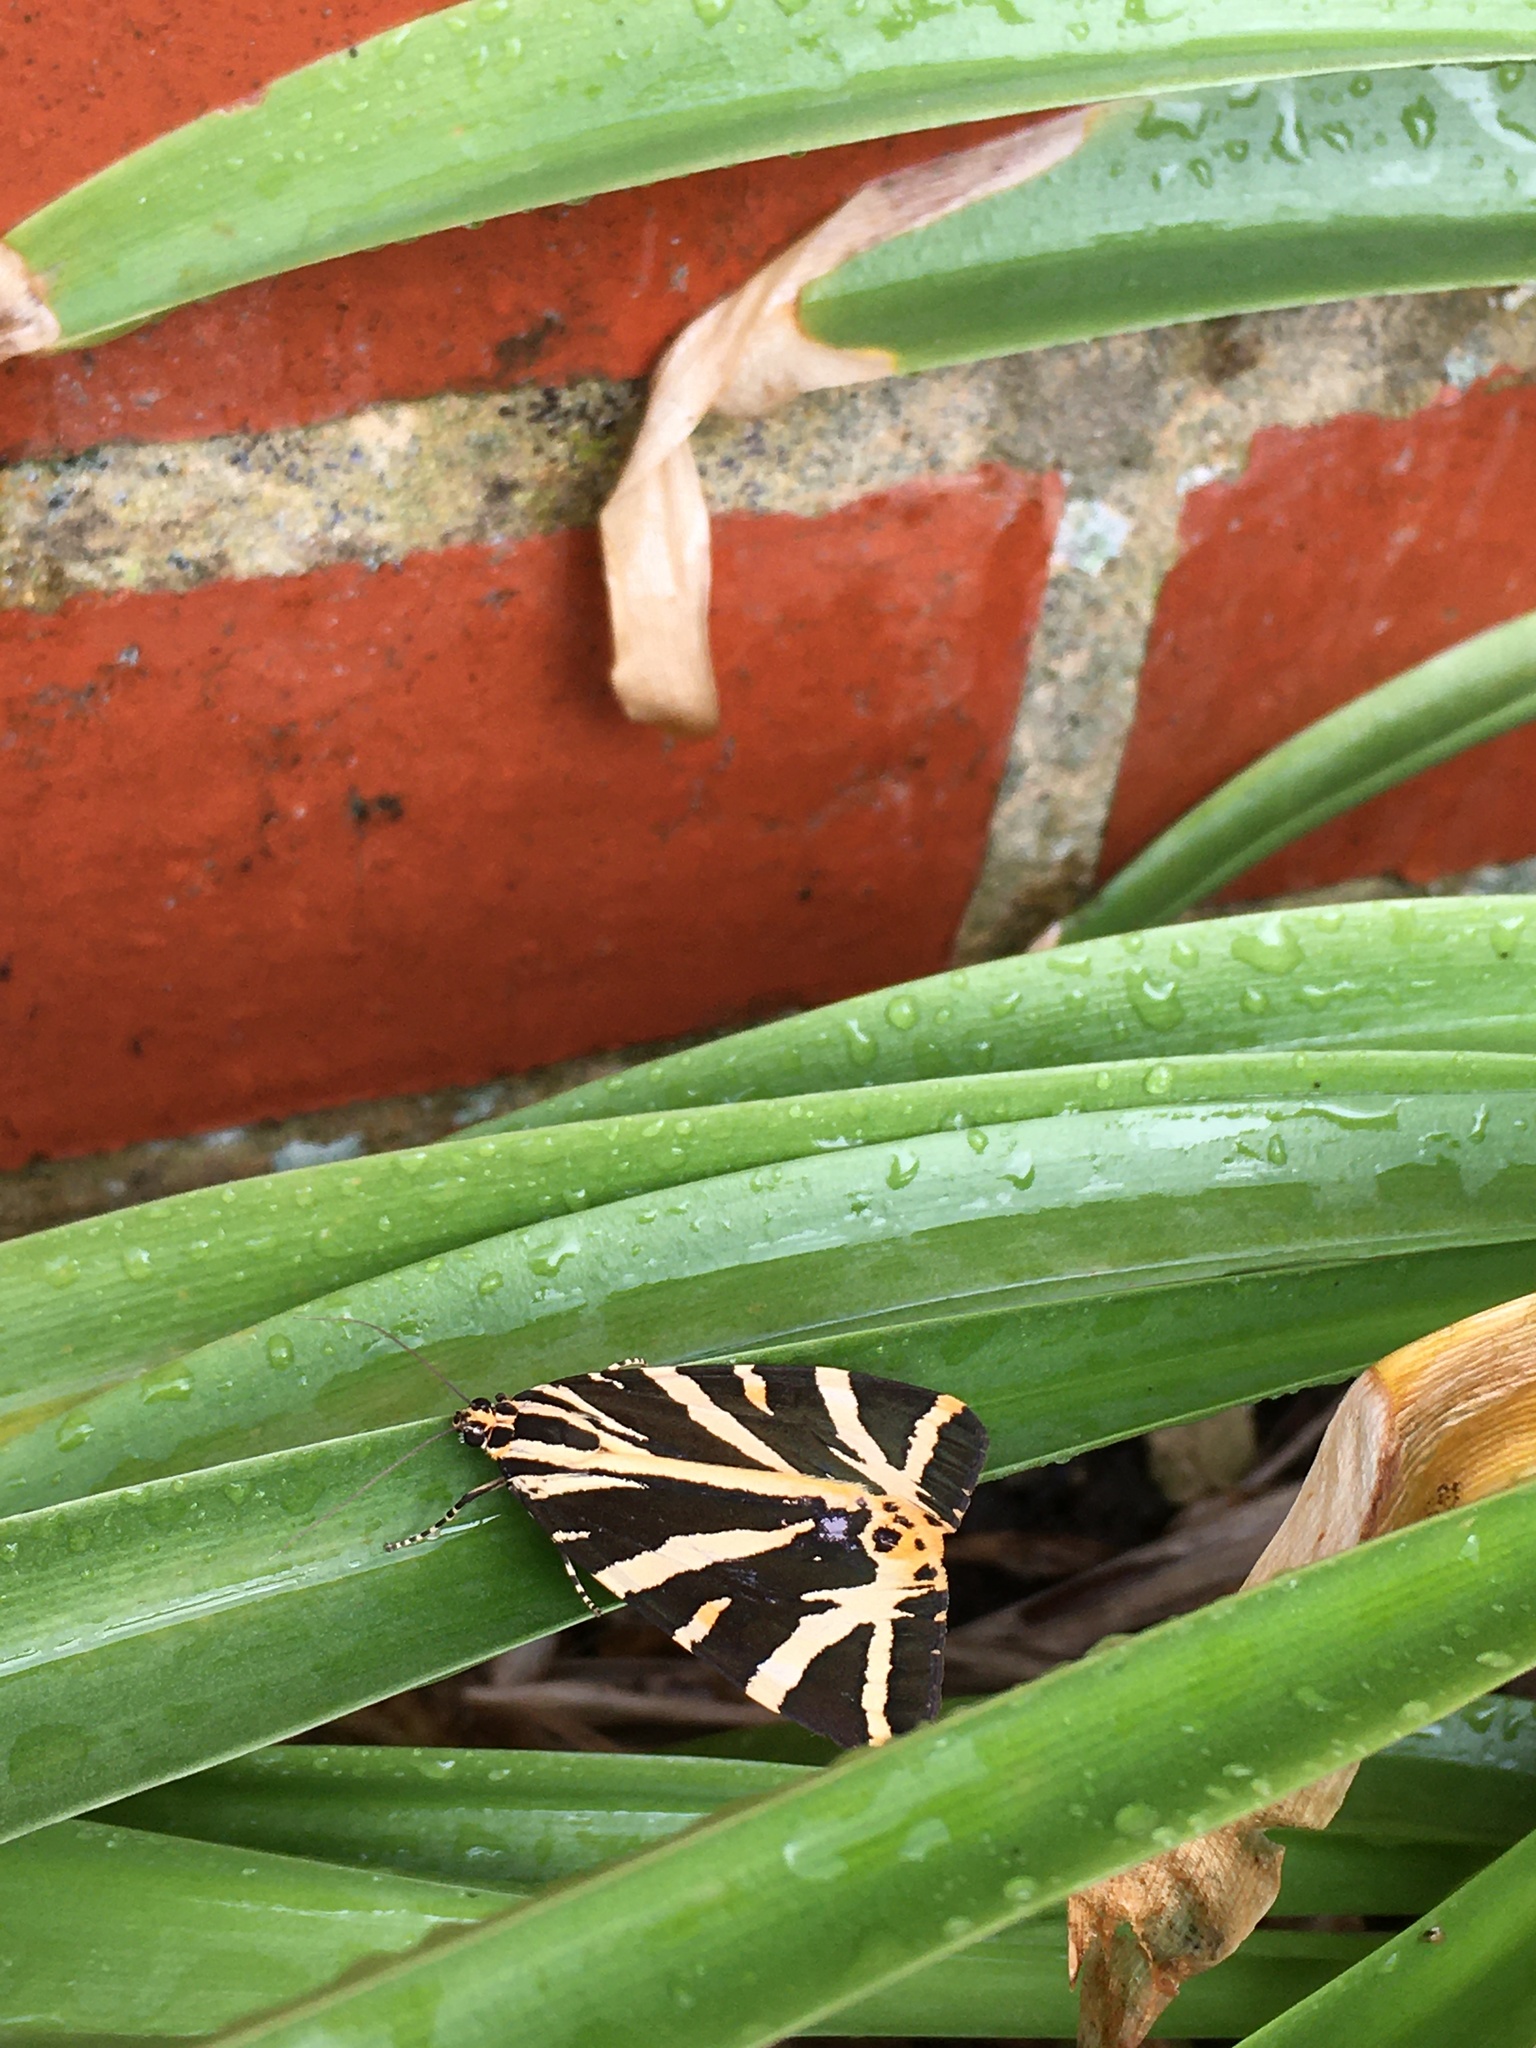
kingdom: Animalia
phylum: Arthropoda
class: Insecta
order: Lepidoptera
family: Erebidae
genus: Euplagia
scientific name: Euplagia quadripunctaria
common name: Jersey tiger
